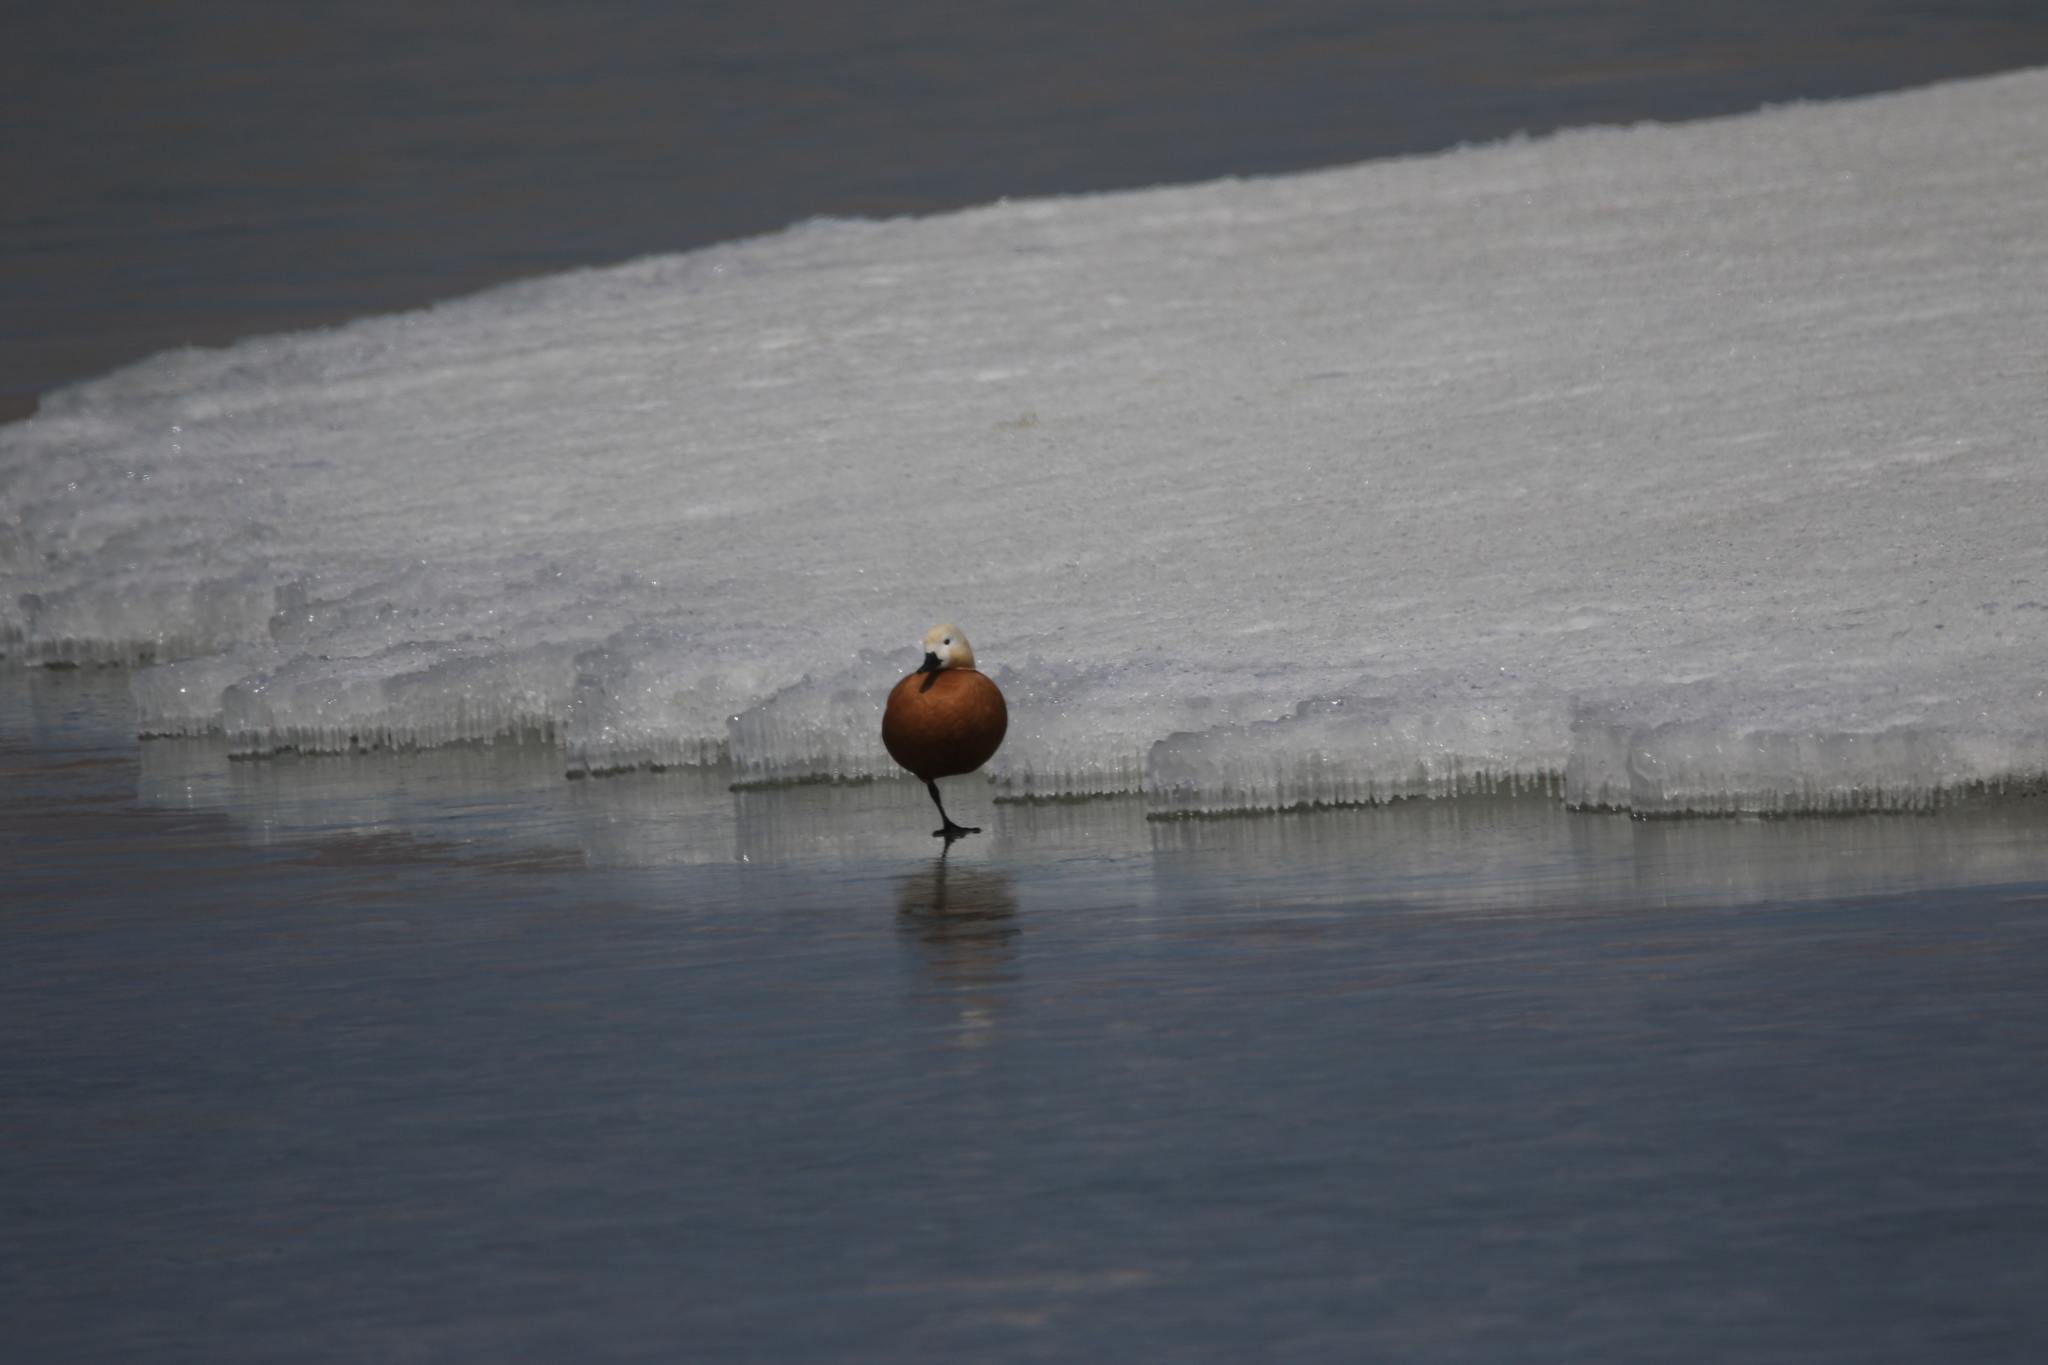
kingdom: Animalia
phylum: Chordata
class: Aves
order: Anseriformes
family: Anatidae
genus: Tadorna
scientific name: Tadorna ferruginea
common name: Ruddy shelduck
